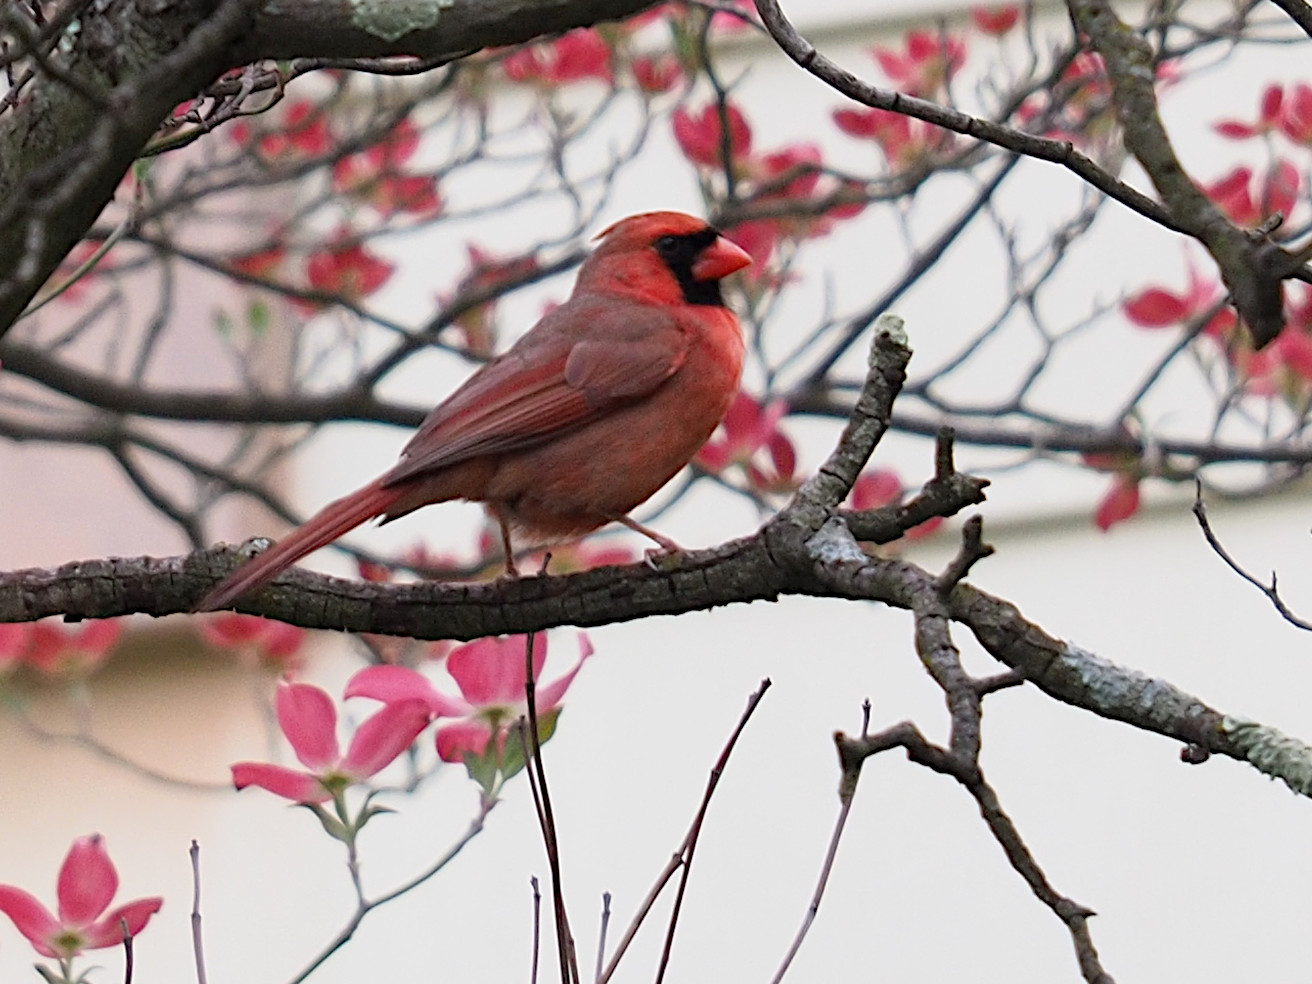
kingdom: Animalia
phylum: Chordata
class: Aves
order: Passeriformes
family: Cardinalidae
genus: Cardinalis
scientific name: Cardinalis cardinalis
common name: Northern cardinal
